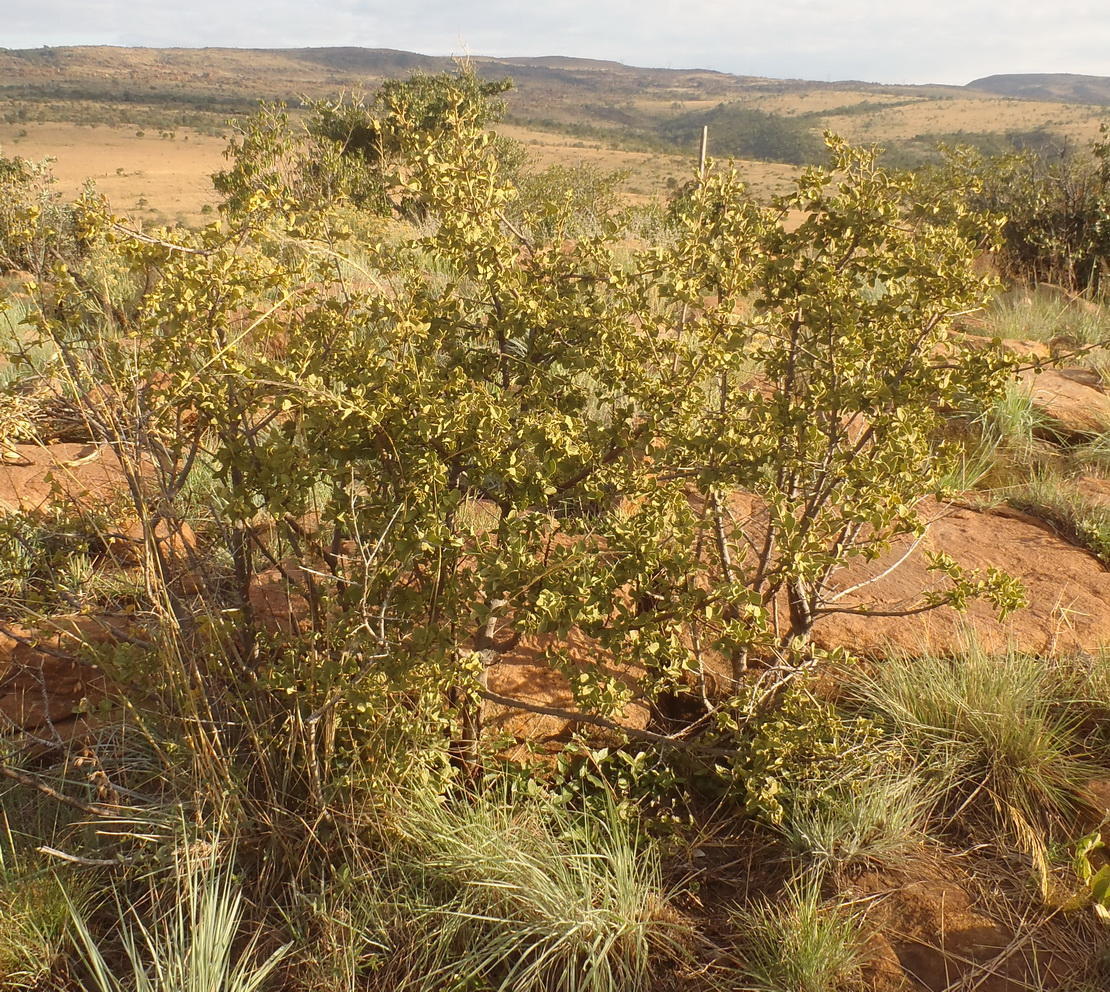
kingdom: Plantae
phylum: Tracheophyta
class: Magnoliopsida
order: Gentianales
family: Rubiaceae
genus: Vangueria
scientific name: Vangueria parvifolia
